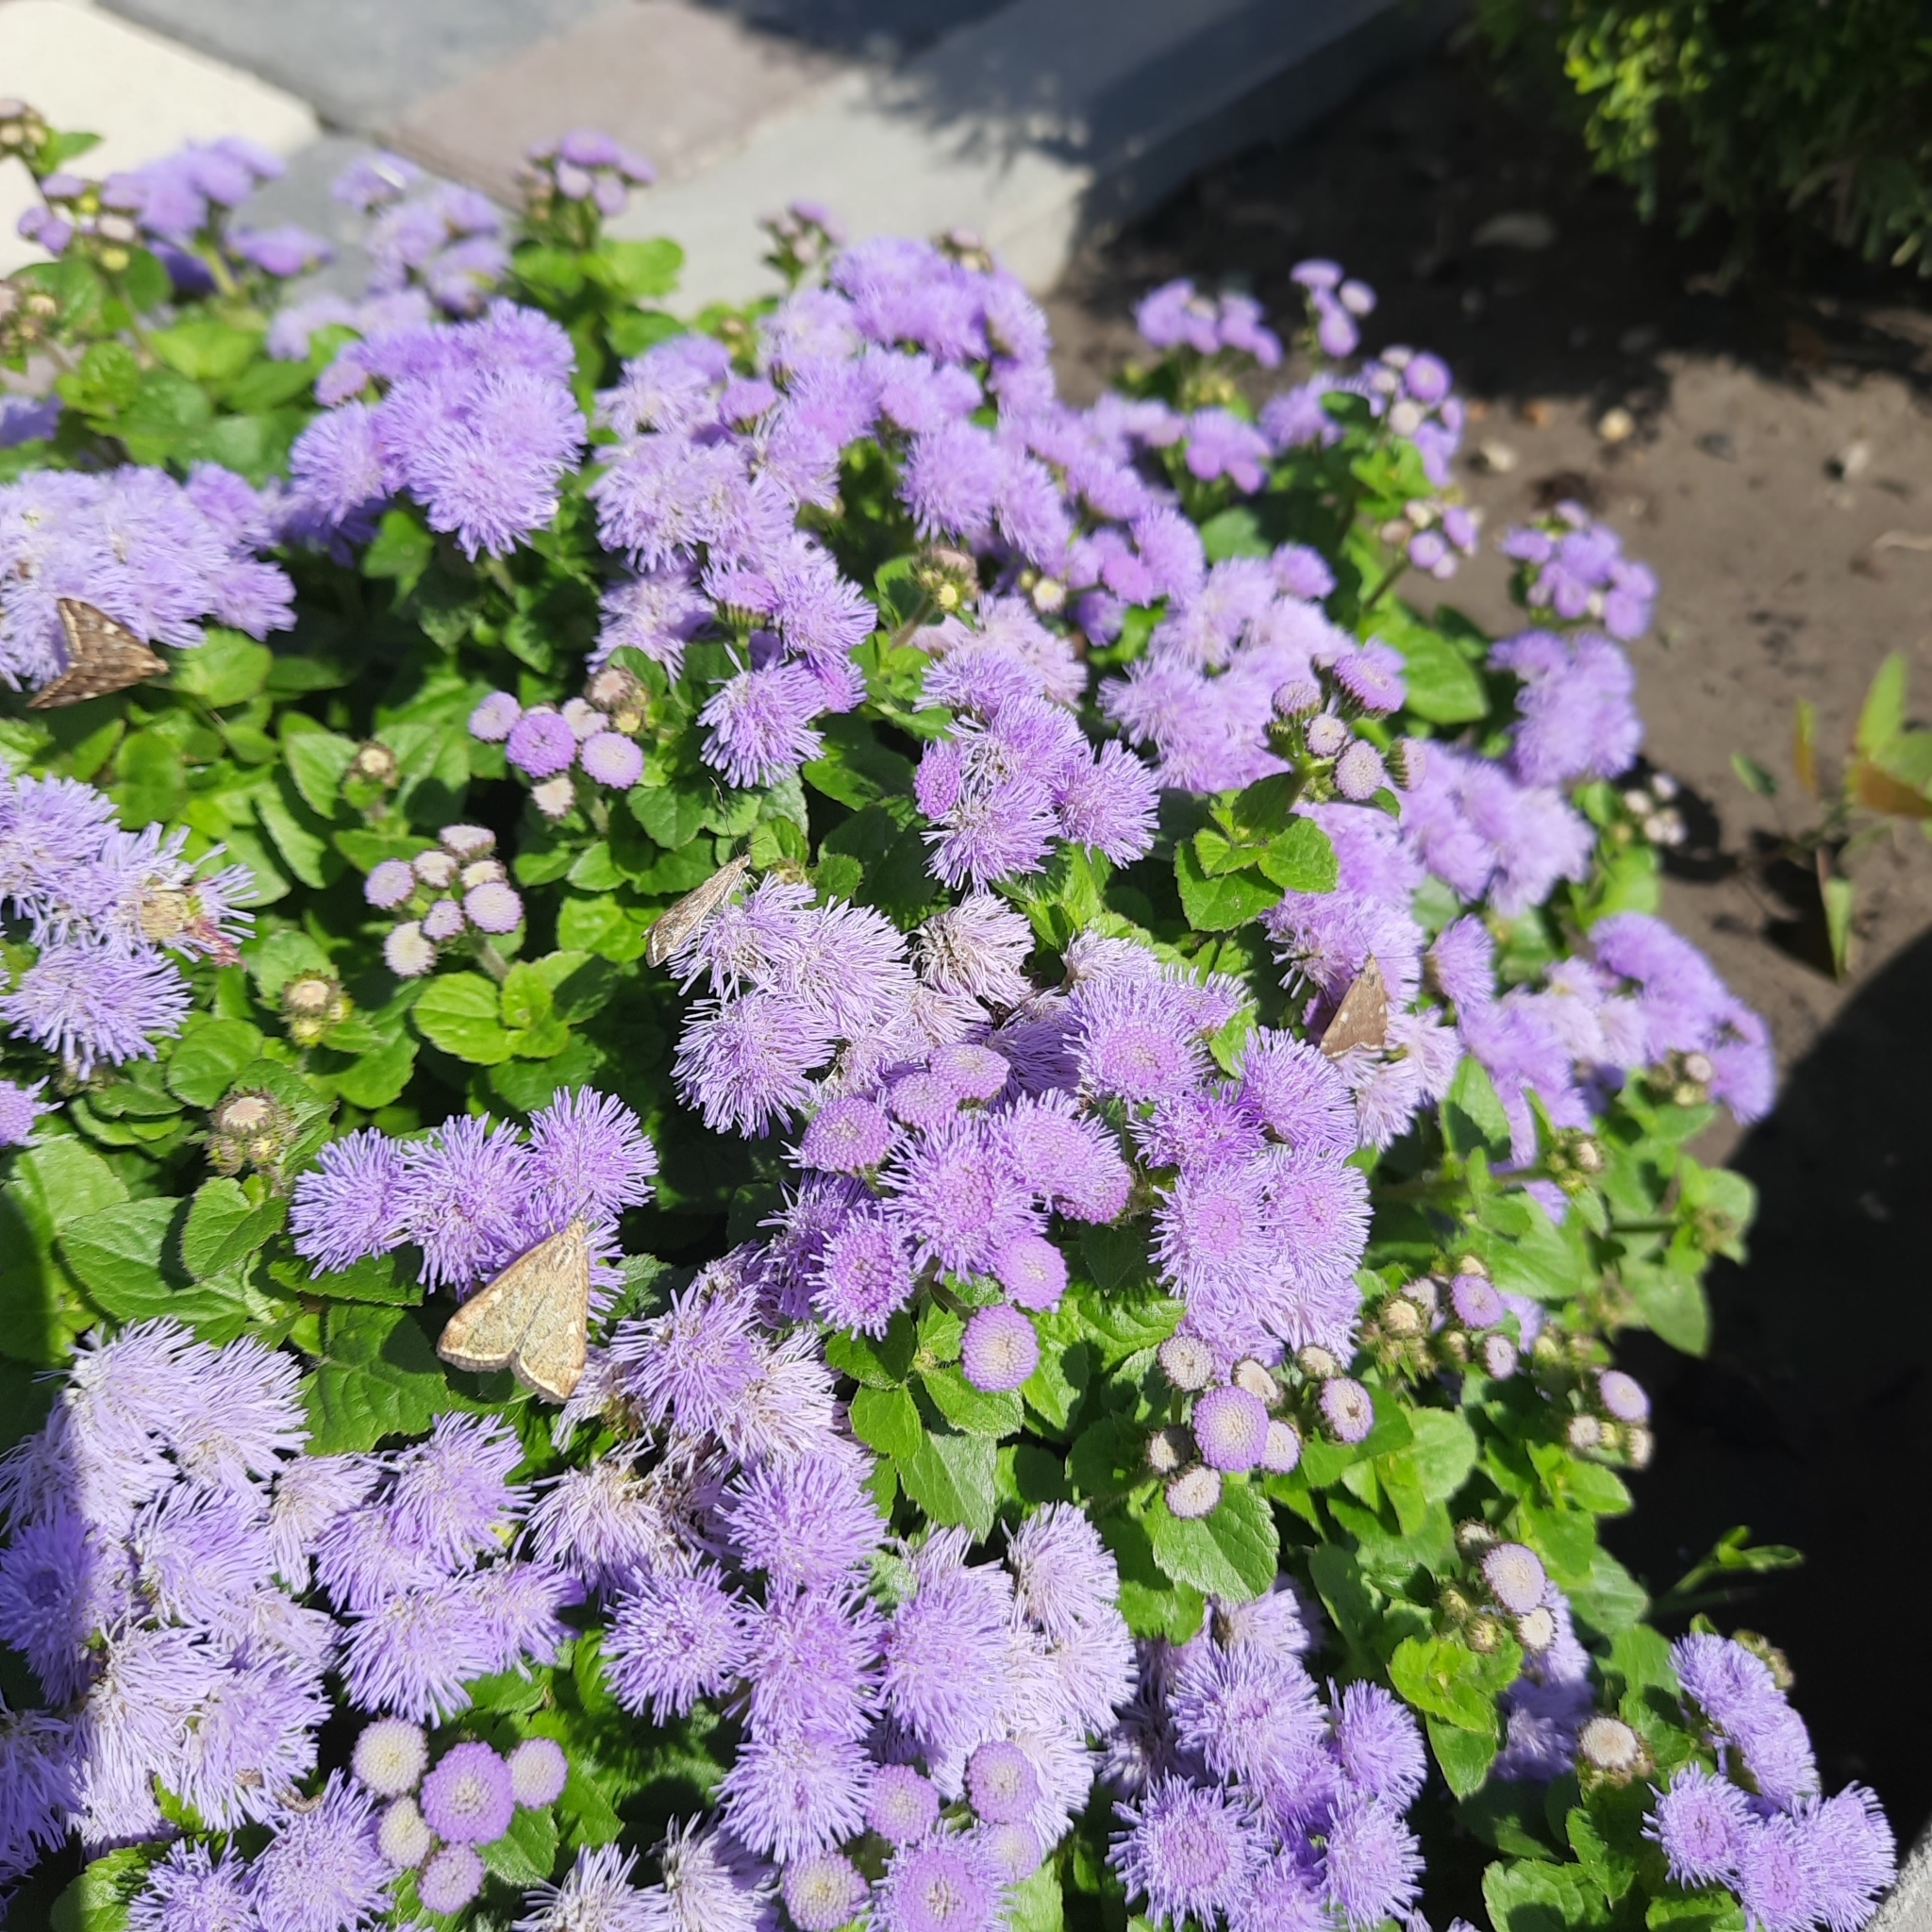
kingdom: Animalia
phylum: Arthropoda
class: Insecta
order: Lepidoptera
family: Crambidae
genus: Loxostege
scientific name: Loxostege sticticalis
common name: Crambid moth
